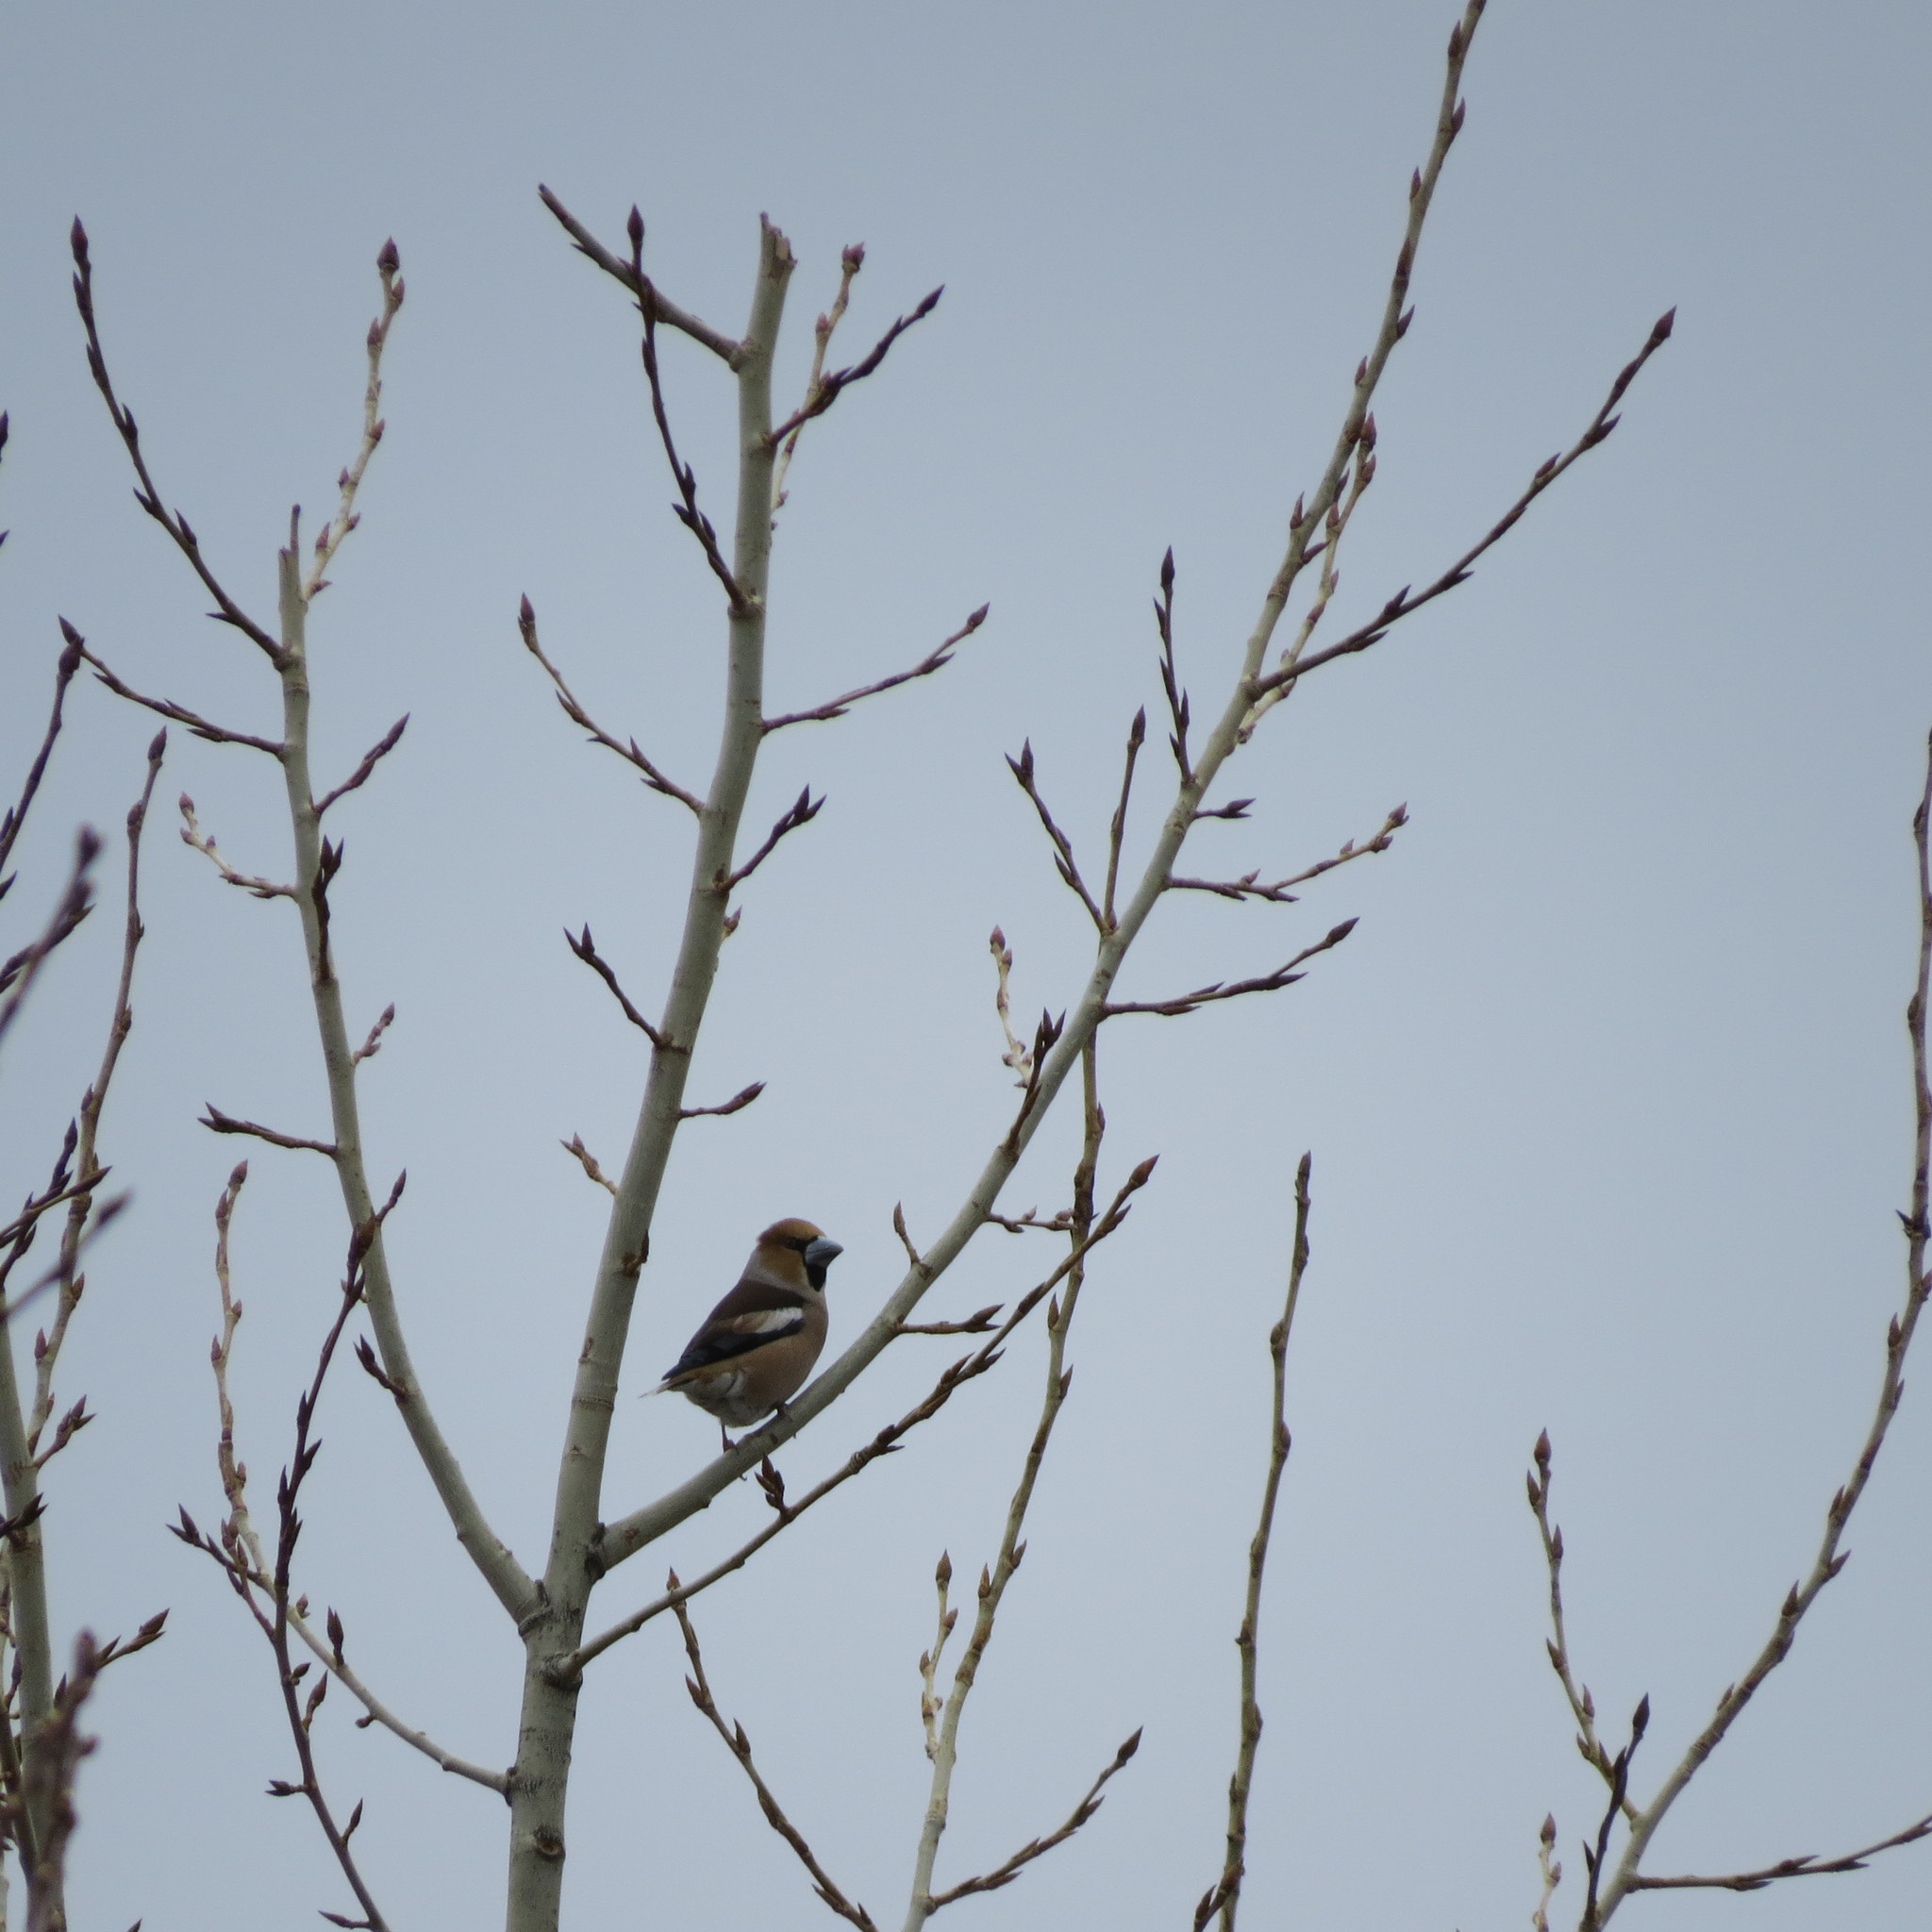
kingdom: Animalia
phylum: Chordata
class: Aves
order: Passeriformes
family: Fringillidae
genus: Coccothraustes
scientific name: Coccothraustes coccothraustes
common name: Hawfinch
